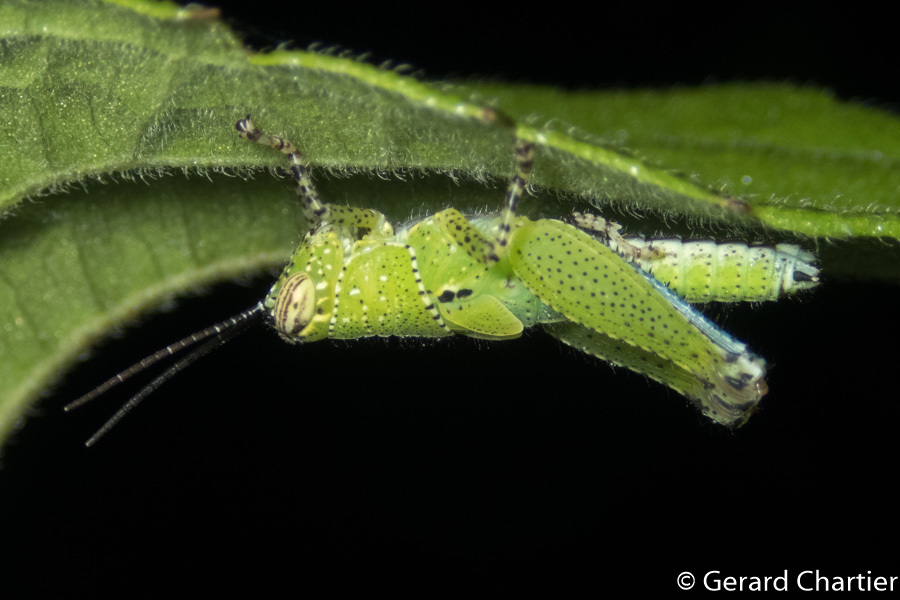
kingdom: Animalia
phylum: Arthropoda
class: Insecta
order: Orthoptera
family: Acrididae
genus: Xenocatantops
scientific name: Xenocatantops humile
